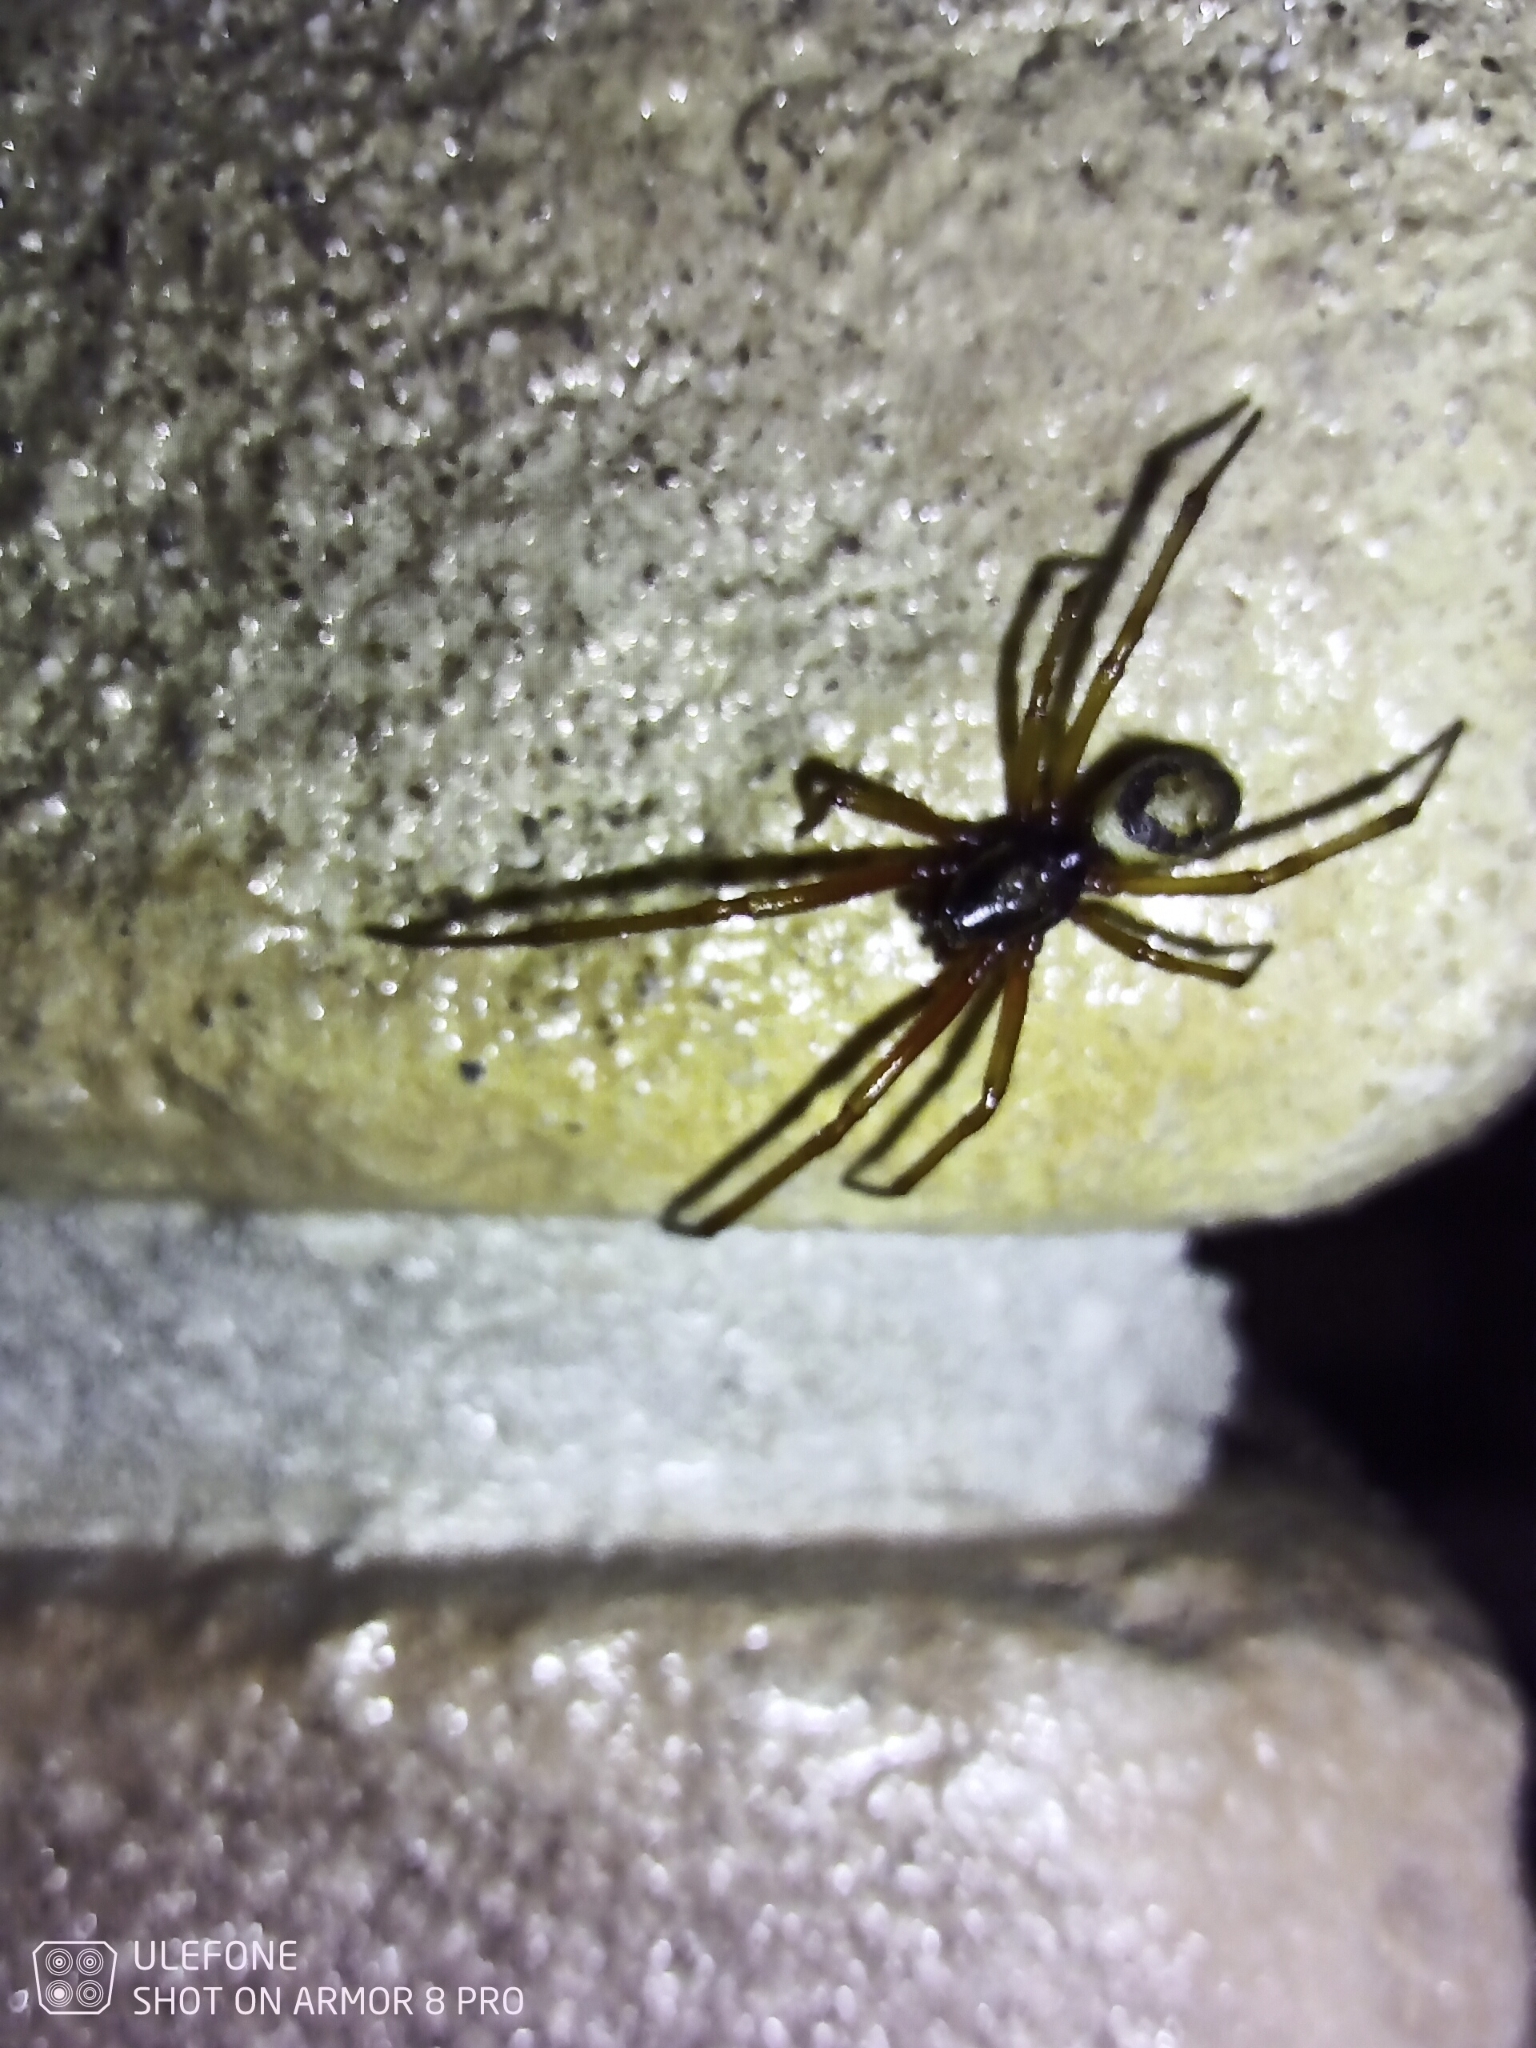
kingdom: Animalia
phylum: Arthropoda
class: Arachnida
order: Araneae
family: Theridiidae
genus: Steatoda
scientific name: Steatoda nobilis
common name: Cobweb weaver
